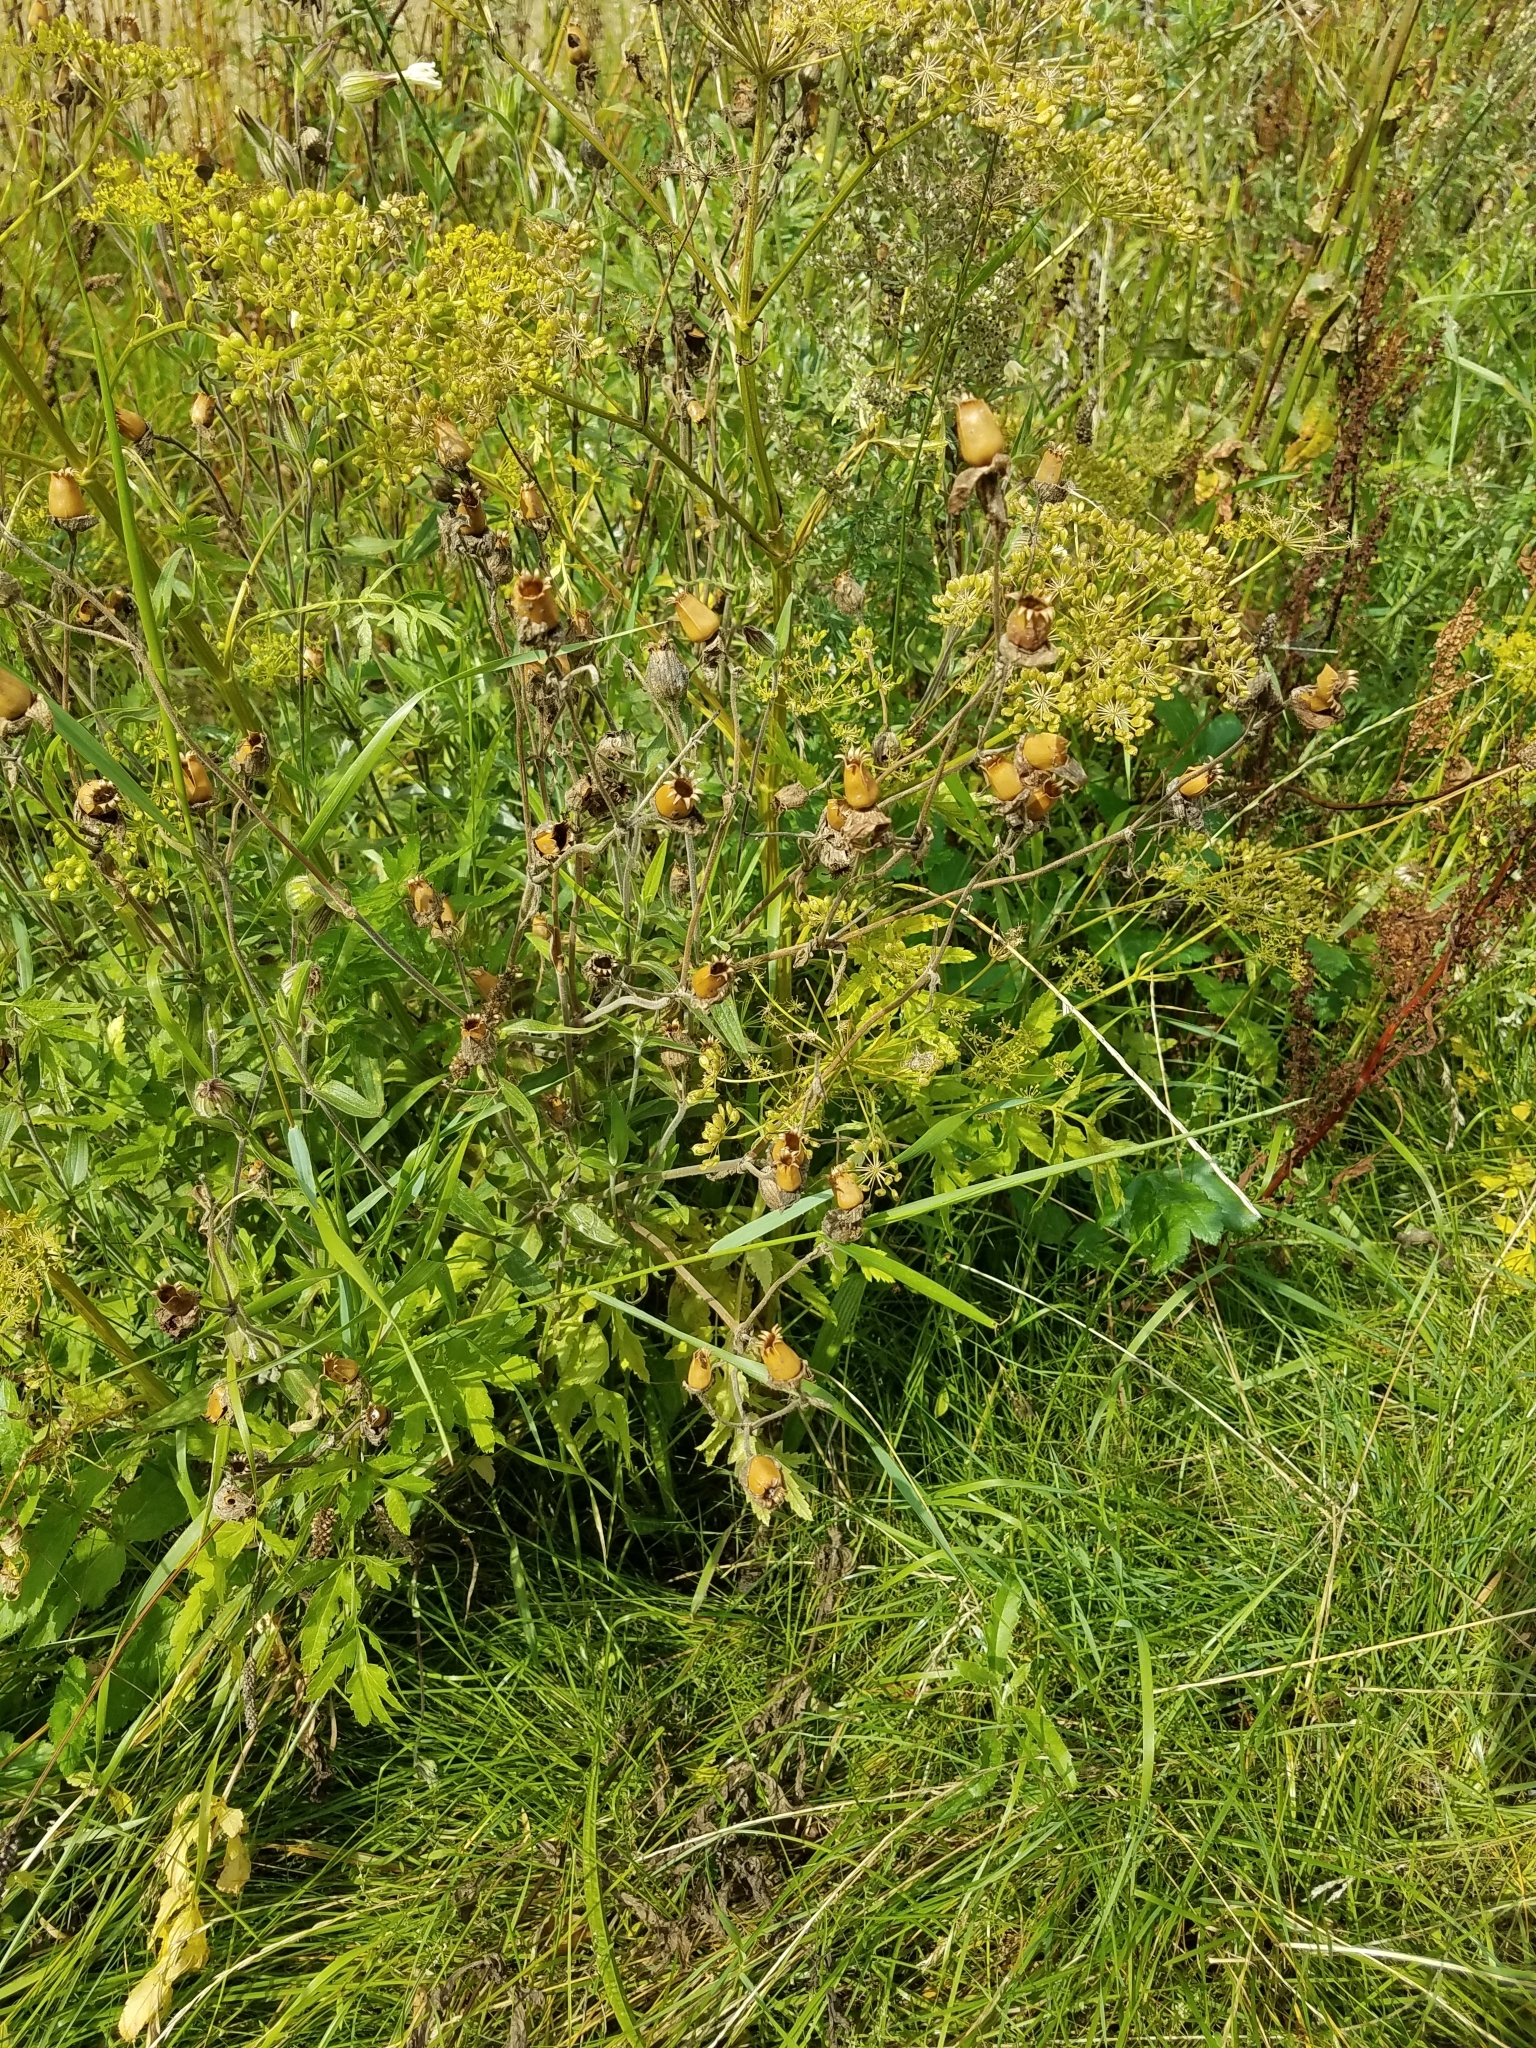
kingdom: Plantae
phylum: Tracheophyta
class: Magnoliopsida
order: Caryophyllales
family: Caryophyllaceae
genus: Silene
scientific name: Silene latifolia
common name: White campion
